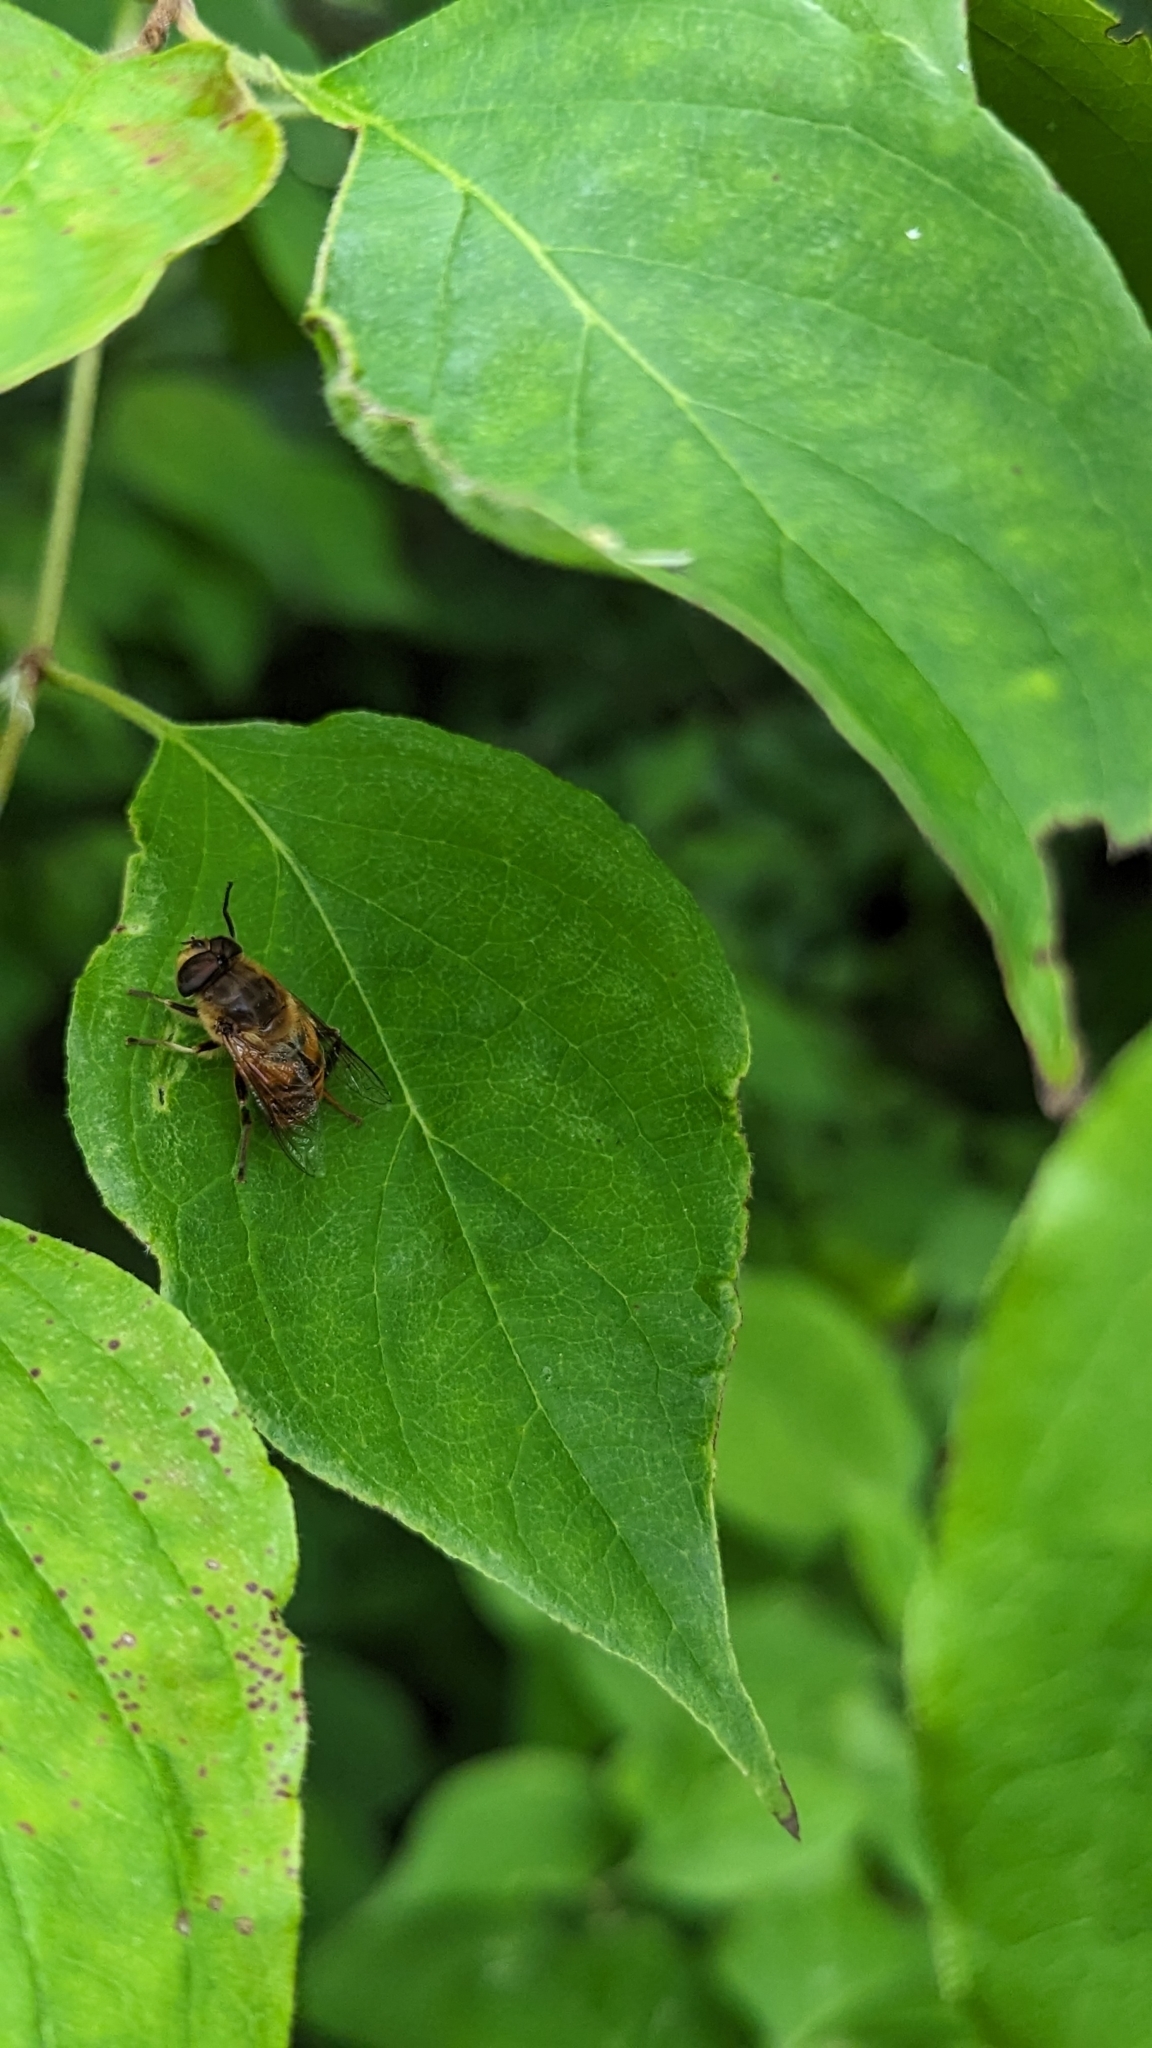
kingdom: Animalia
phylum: Arthropoda
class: Insecta
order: Diptera
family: Syrphidae
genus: Eristalis
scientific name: Eristalis tenax
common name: Drone fly
